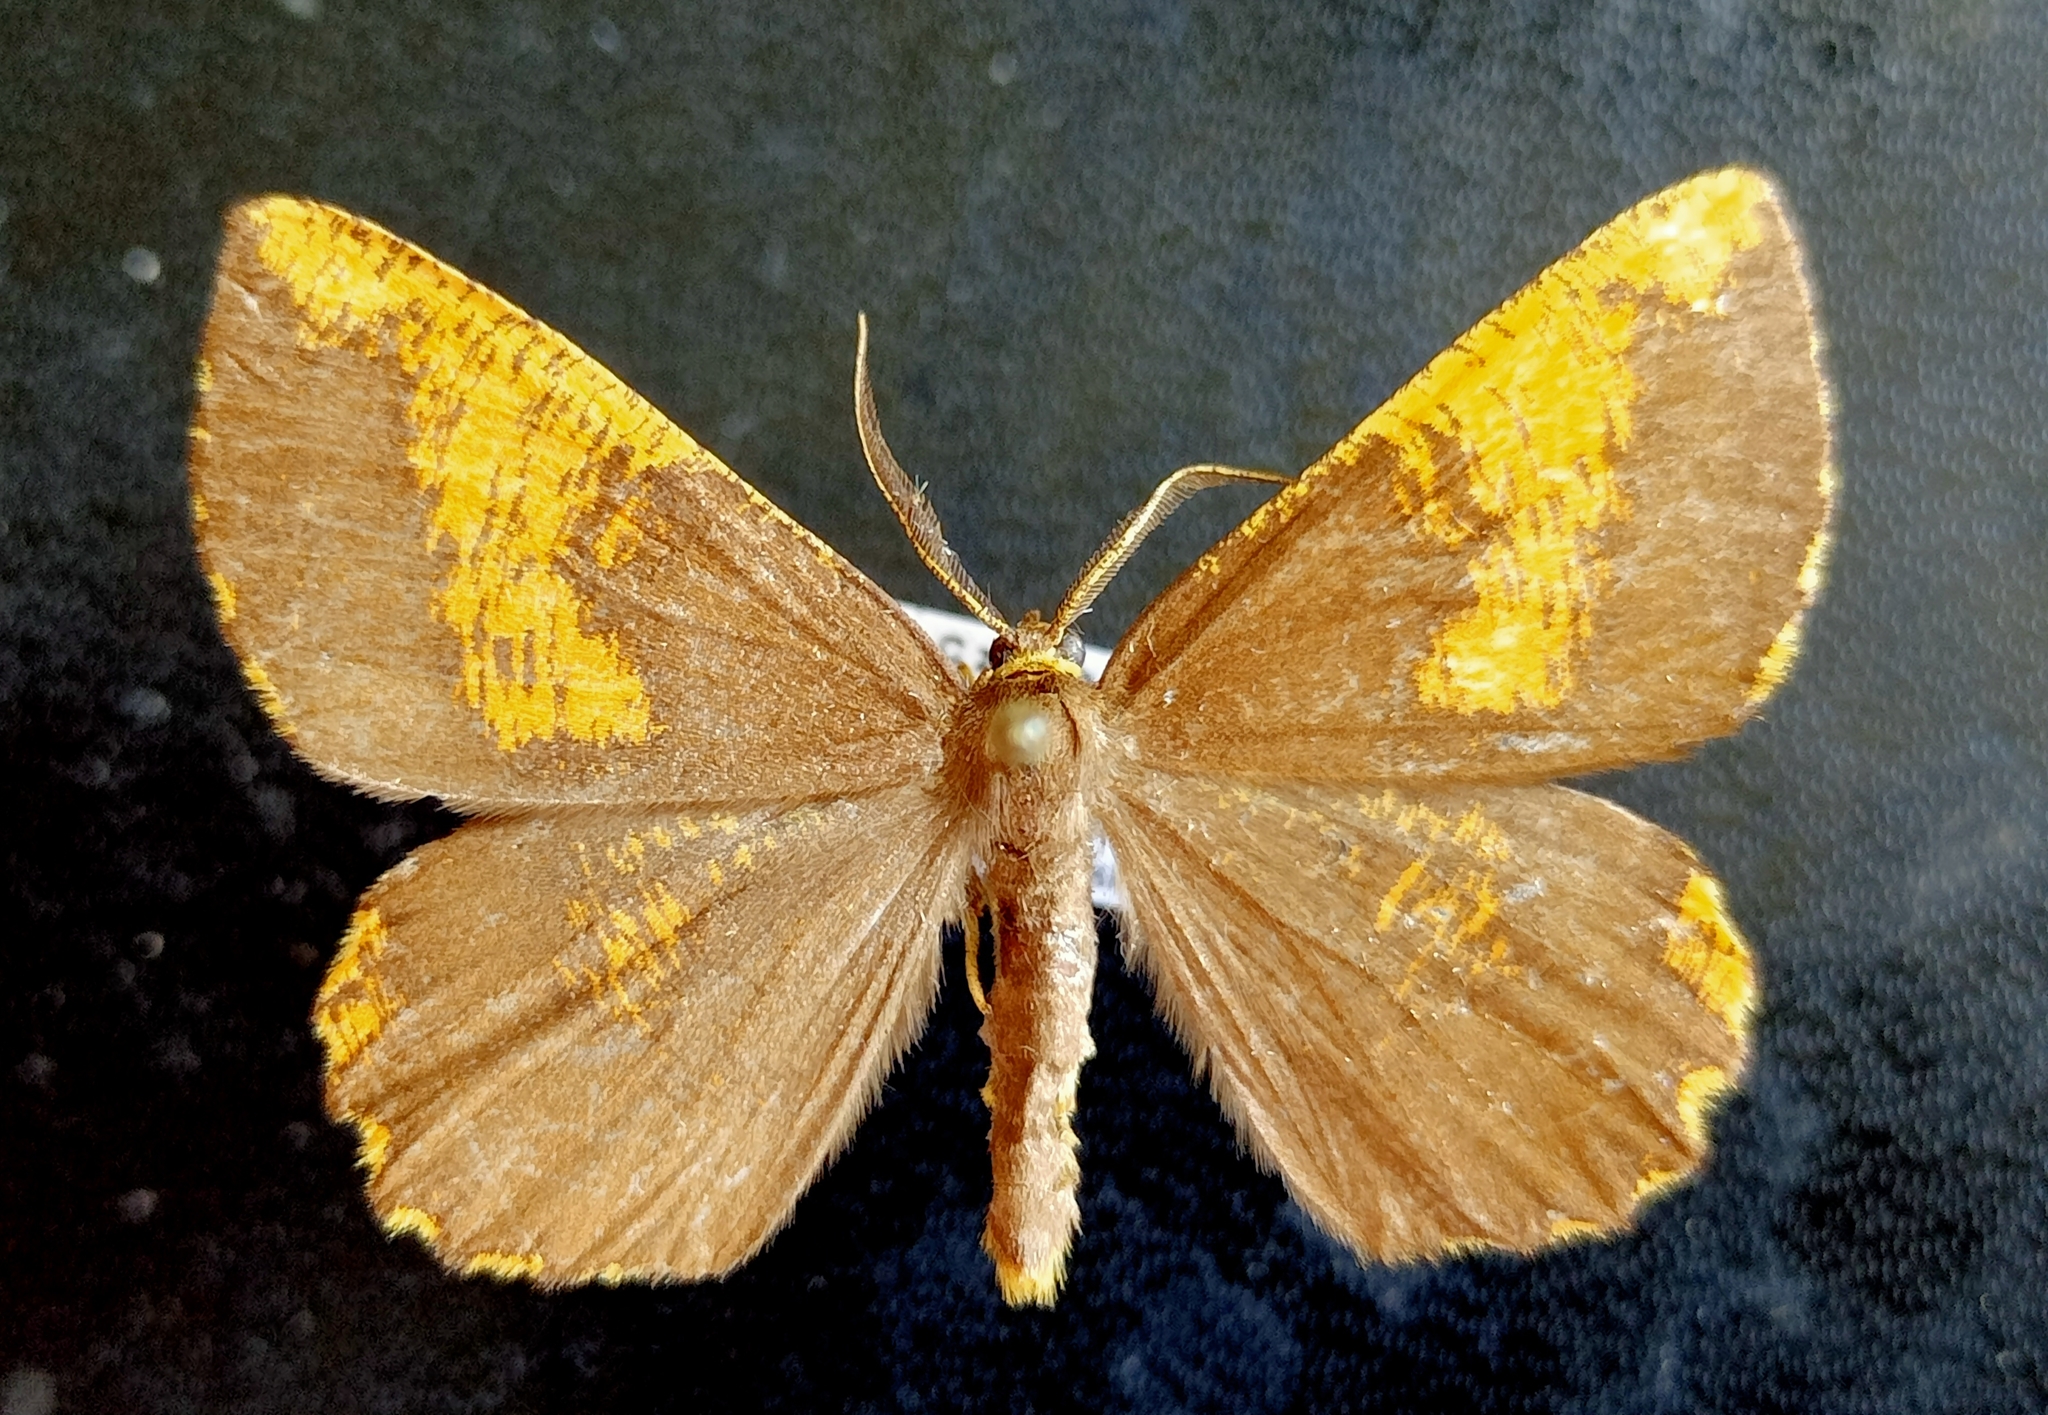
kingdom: Animalia
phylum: Arthropoda
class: Insecta
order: Lepidoptera
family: Geometridae
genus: Angerona
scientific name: Angerona prunaria
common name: Orange moth
